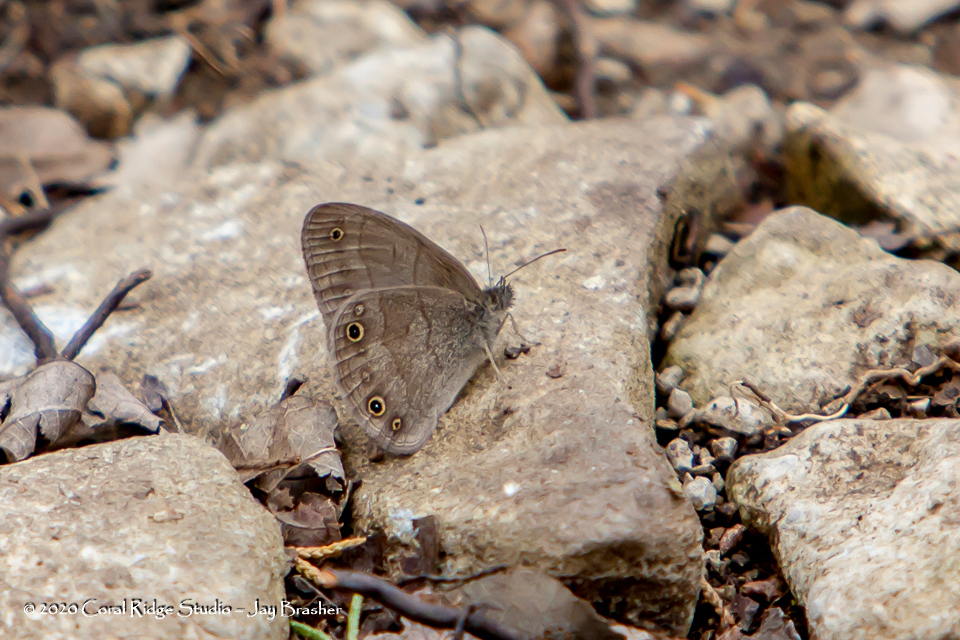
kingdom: Animalia
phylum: Arthropoda
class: Insecta
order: Lepidoptera
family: Nymphalidae
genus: Hermeuptychia
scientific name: Hermeuptychia hermes
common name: Hermes satyr
